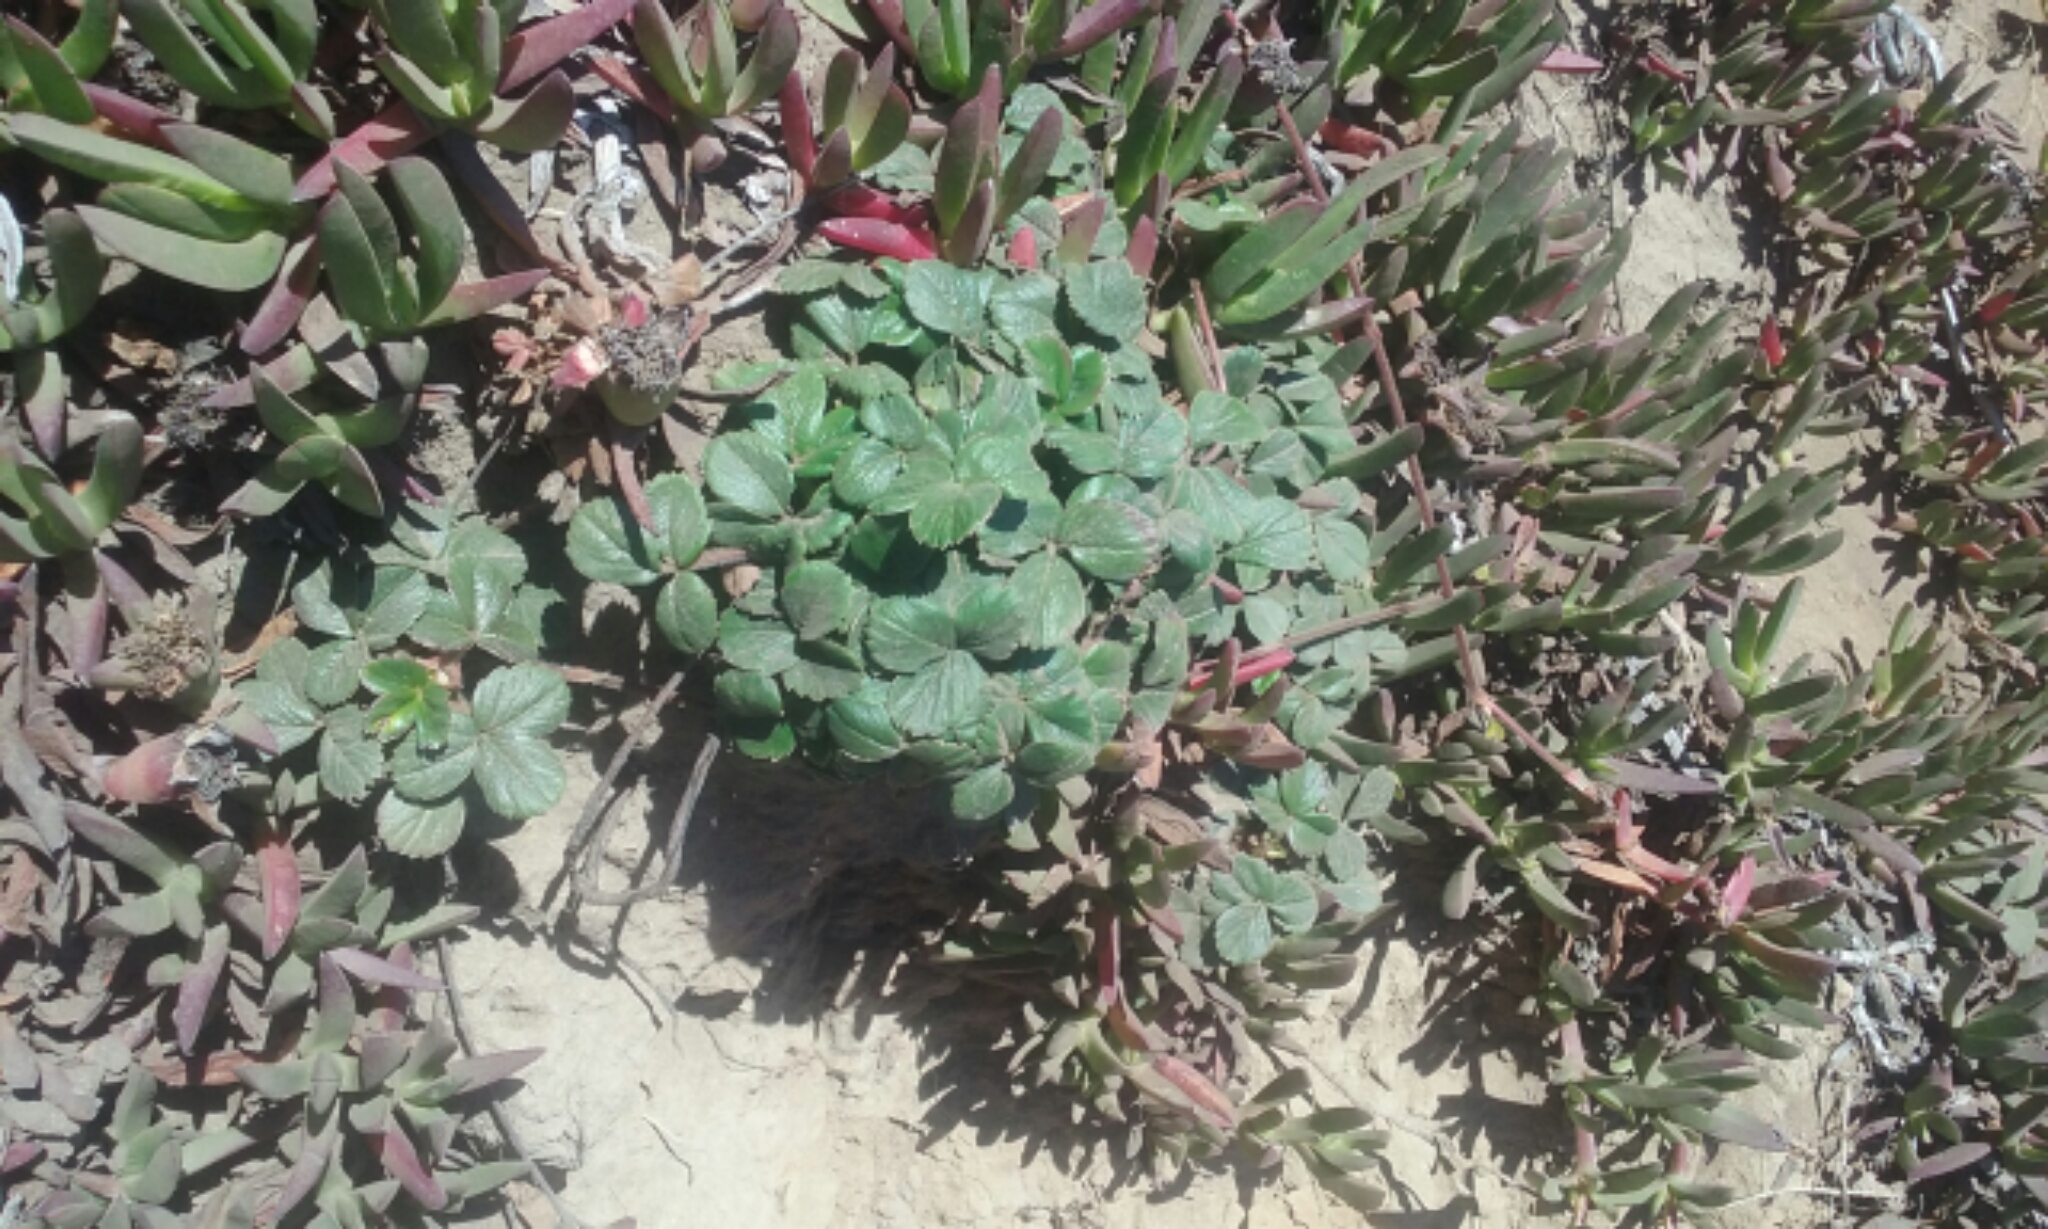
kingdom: Plantae
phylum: Tracheophyta
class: Magnoliopsida
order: Rosales
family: Rosaceae
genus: Fragaria
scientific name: Fragaria chiloensis
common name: Beach strawberry
